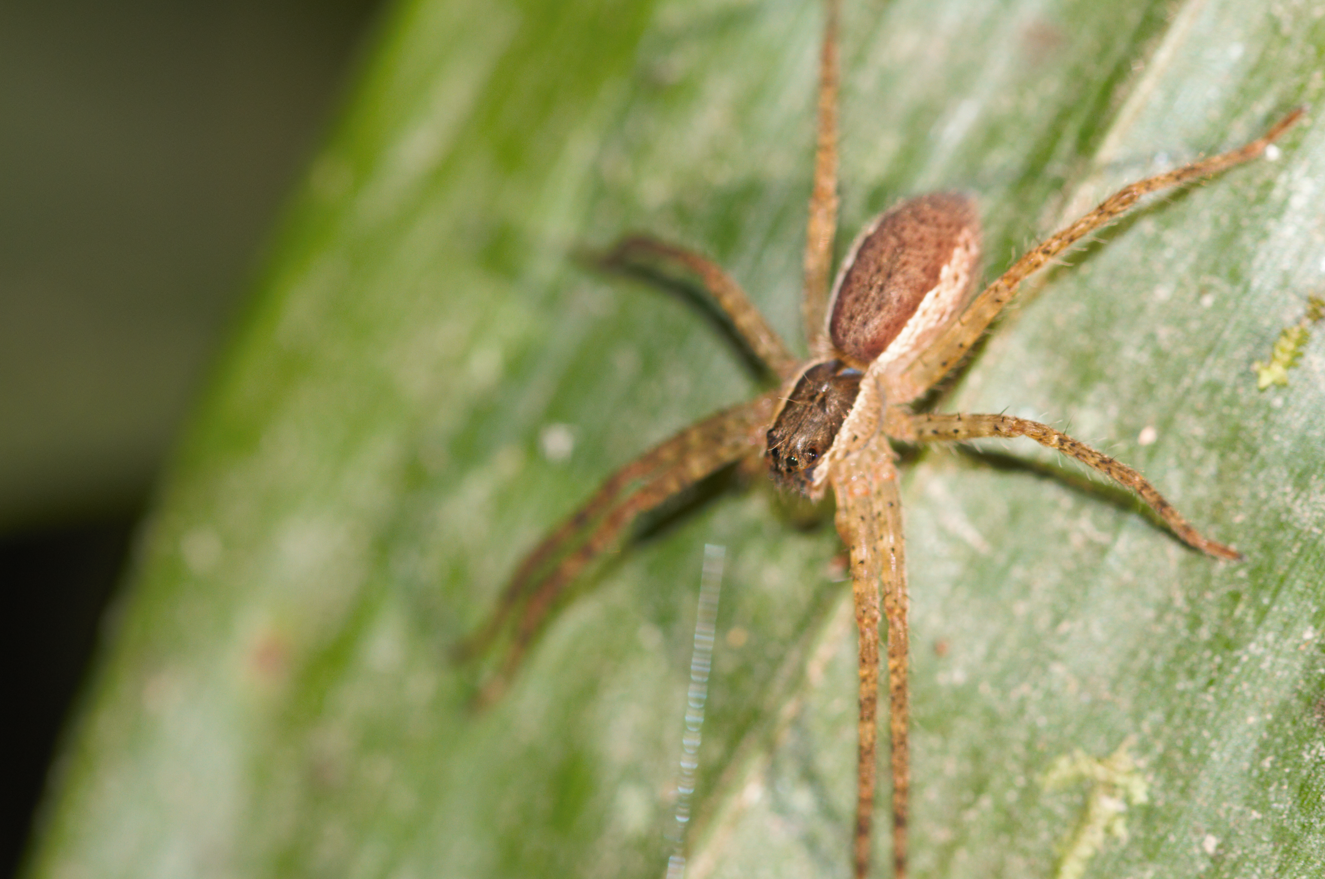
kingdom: Animalia
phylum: Arthropoda
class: Arachnida
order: Araneae
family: Trechaleidae
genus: Cupiennius
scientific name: Cupiennius bimaculatus
